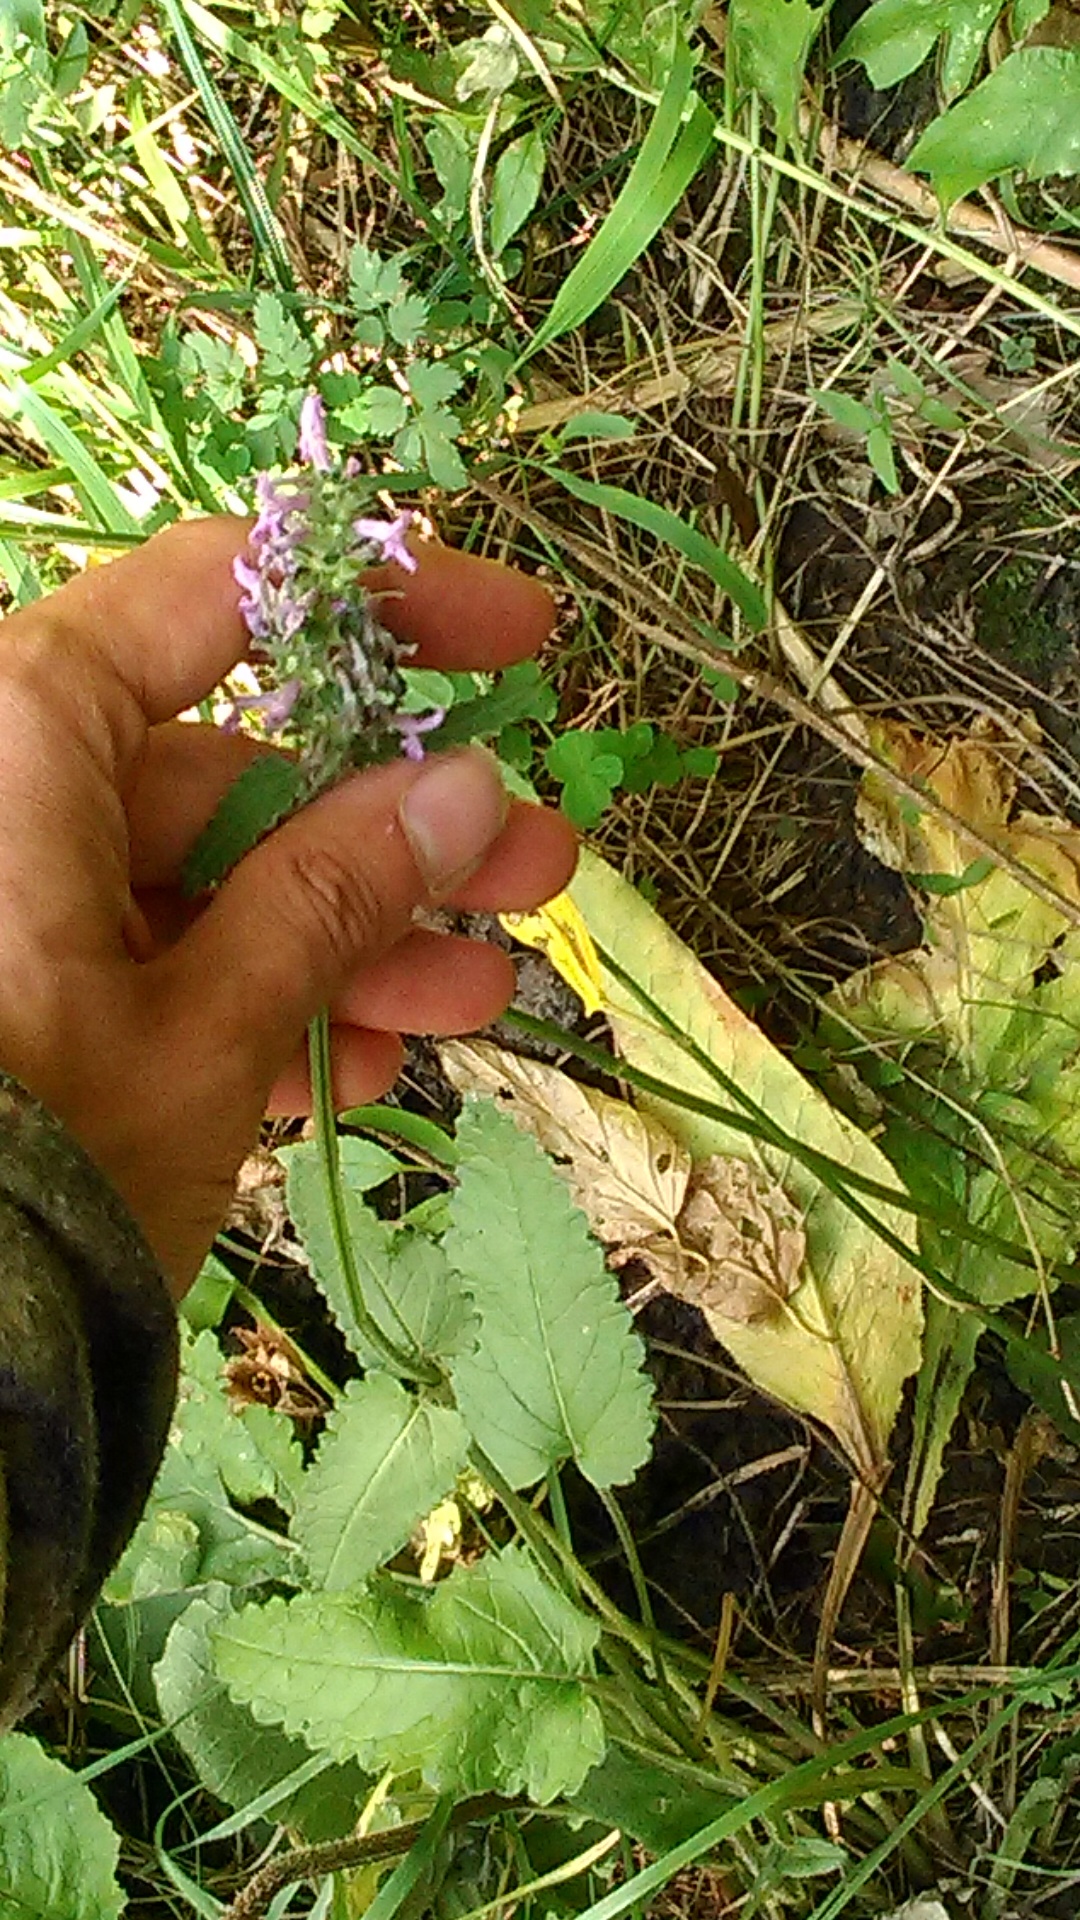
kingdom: Plantae
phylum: Tracheophyta
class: Magnoliopsida
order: Lamiales
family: Lamiaceae
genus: Betonica
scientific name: Betonica officinalis
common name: Bishop's-wort
